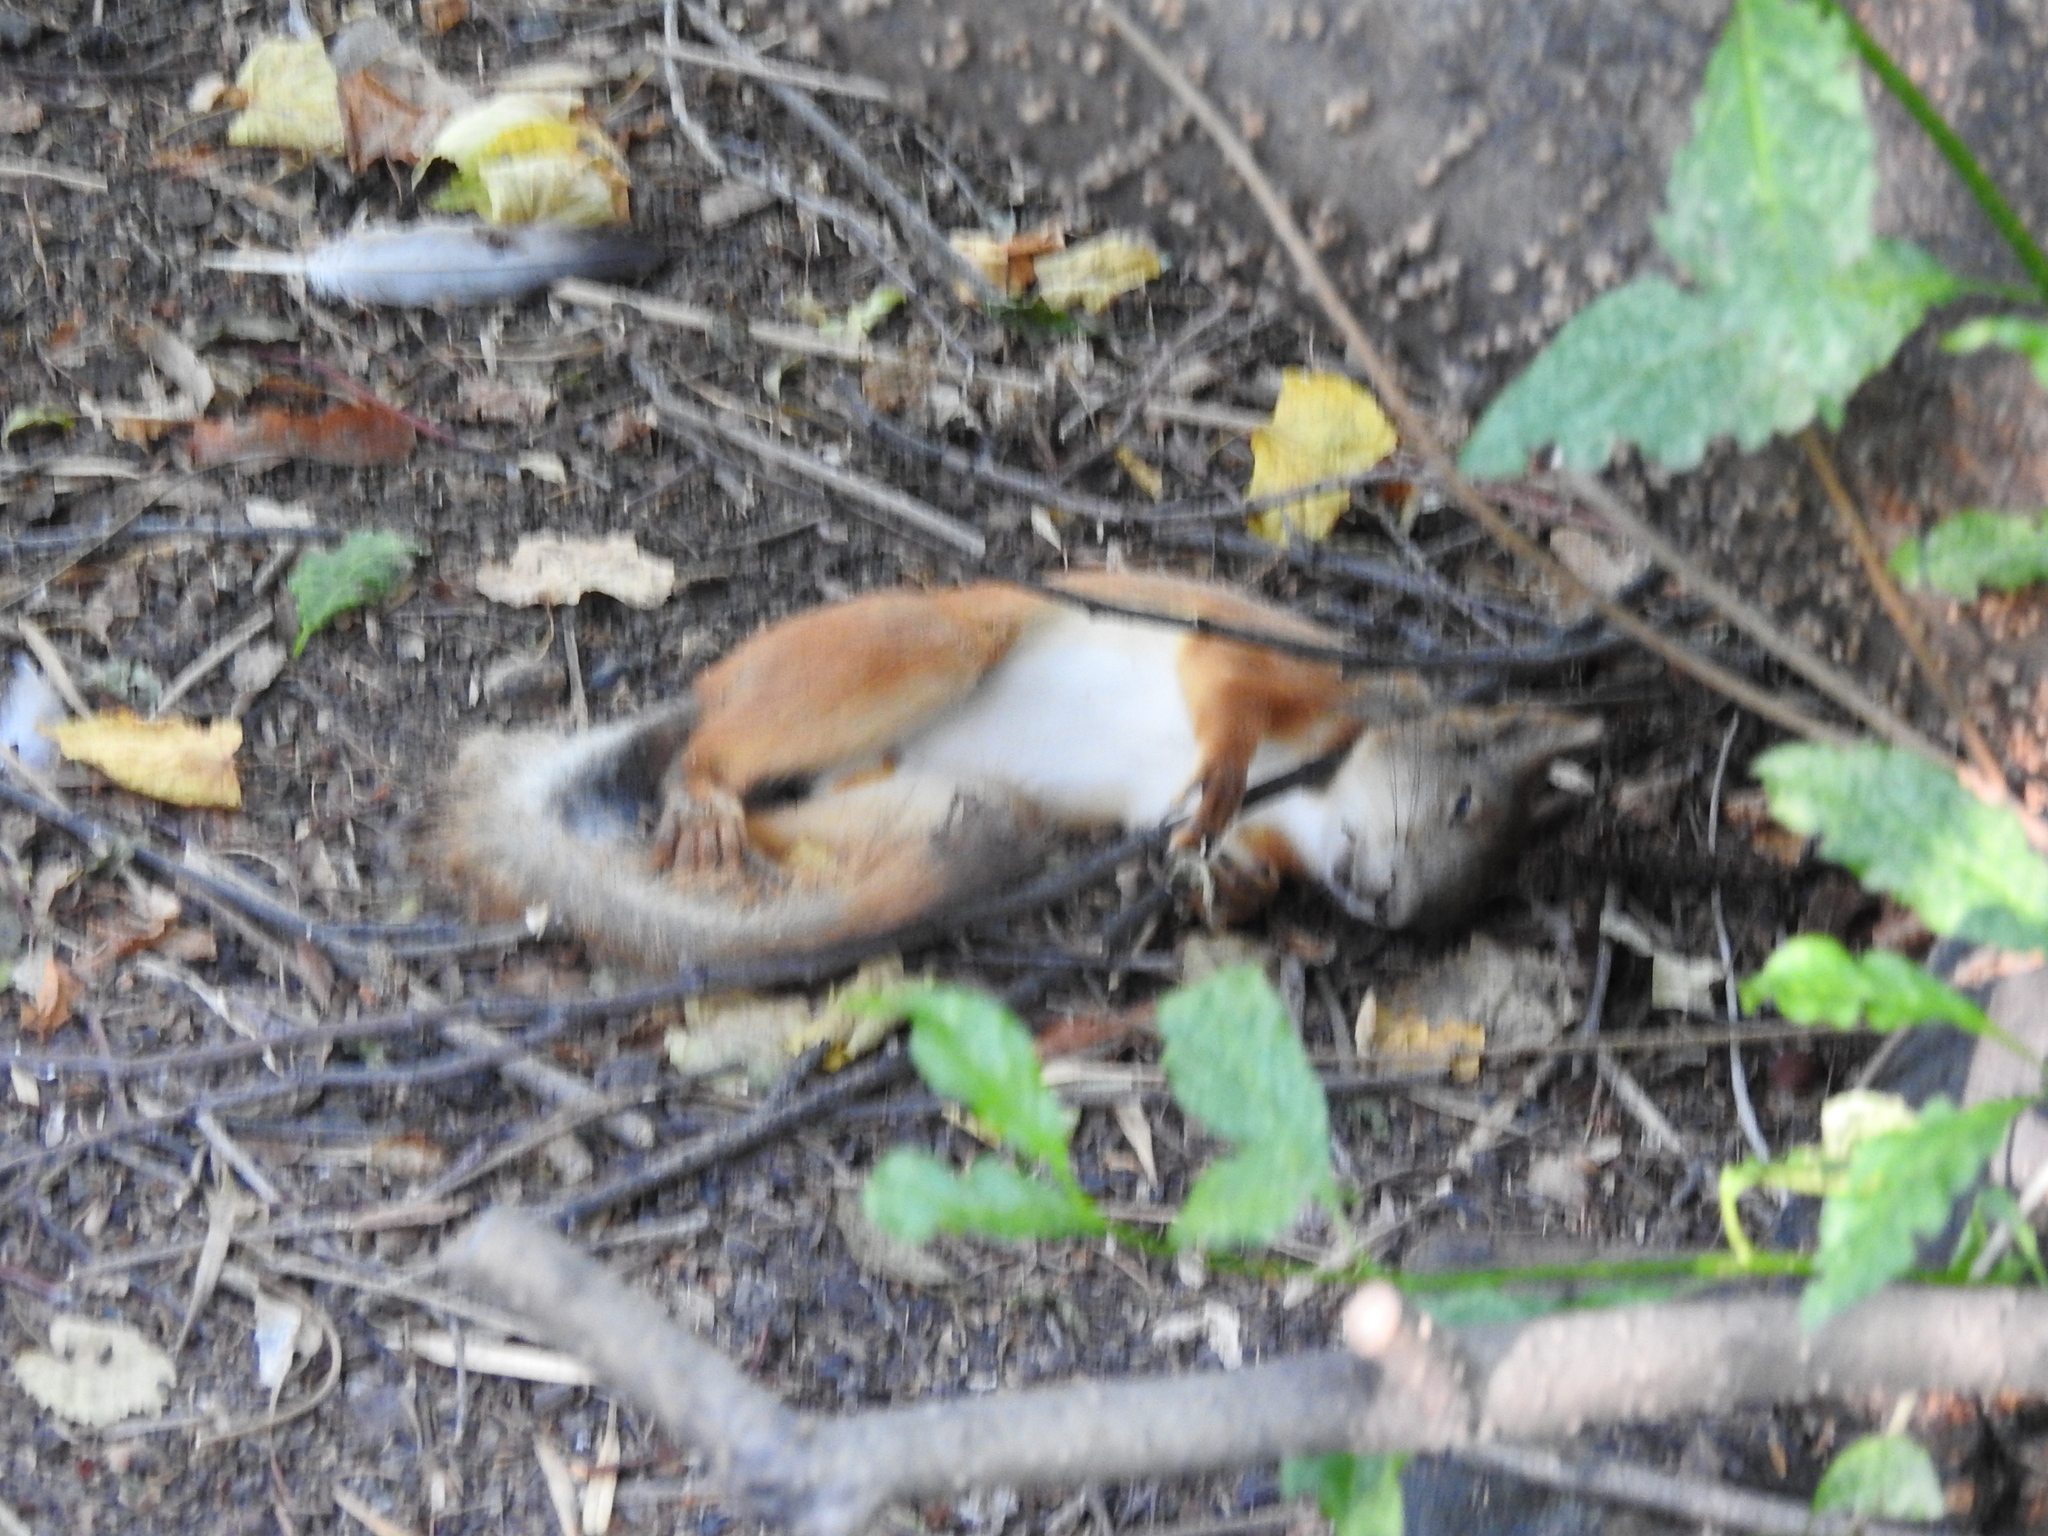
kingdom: Animalia
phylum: Chordata
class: Mammalia
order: Rodentia
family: Sciuridae
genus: Sciurus
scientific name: Sciurus vulgaris
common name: Eurasian red squirrel
